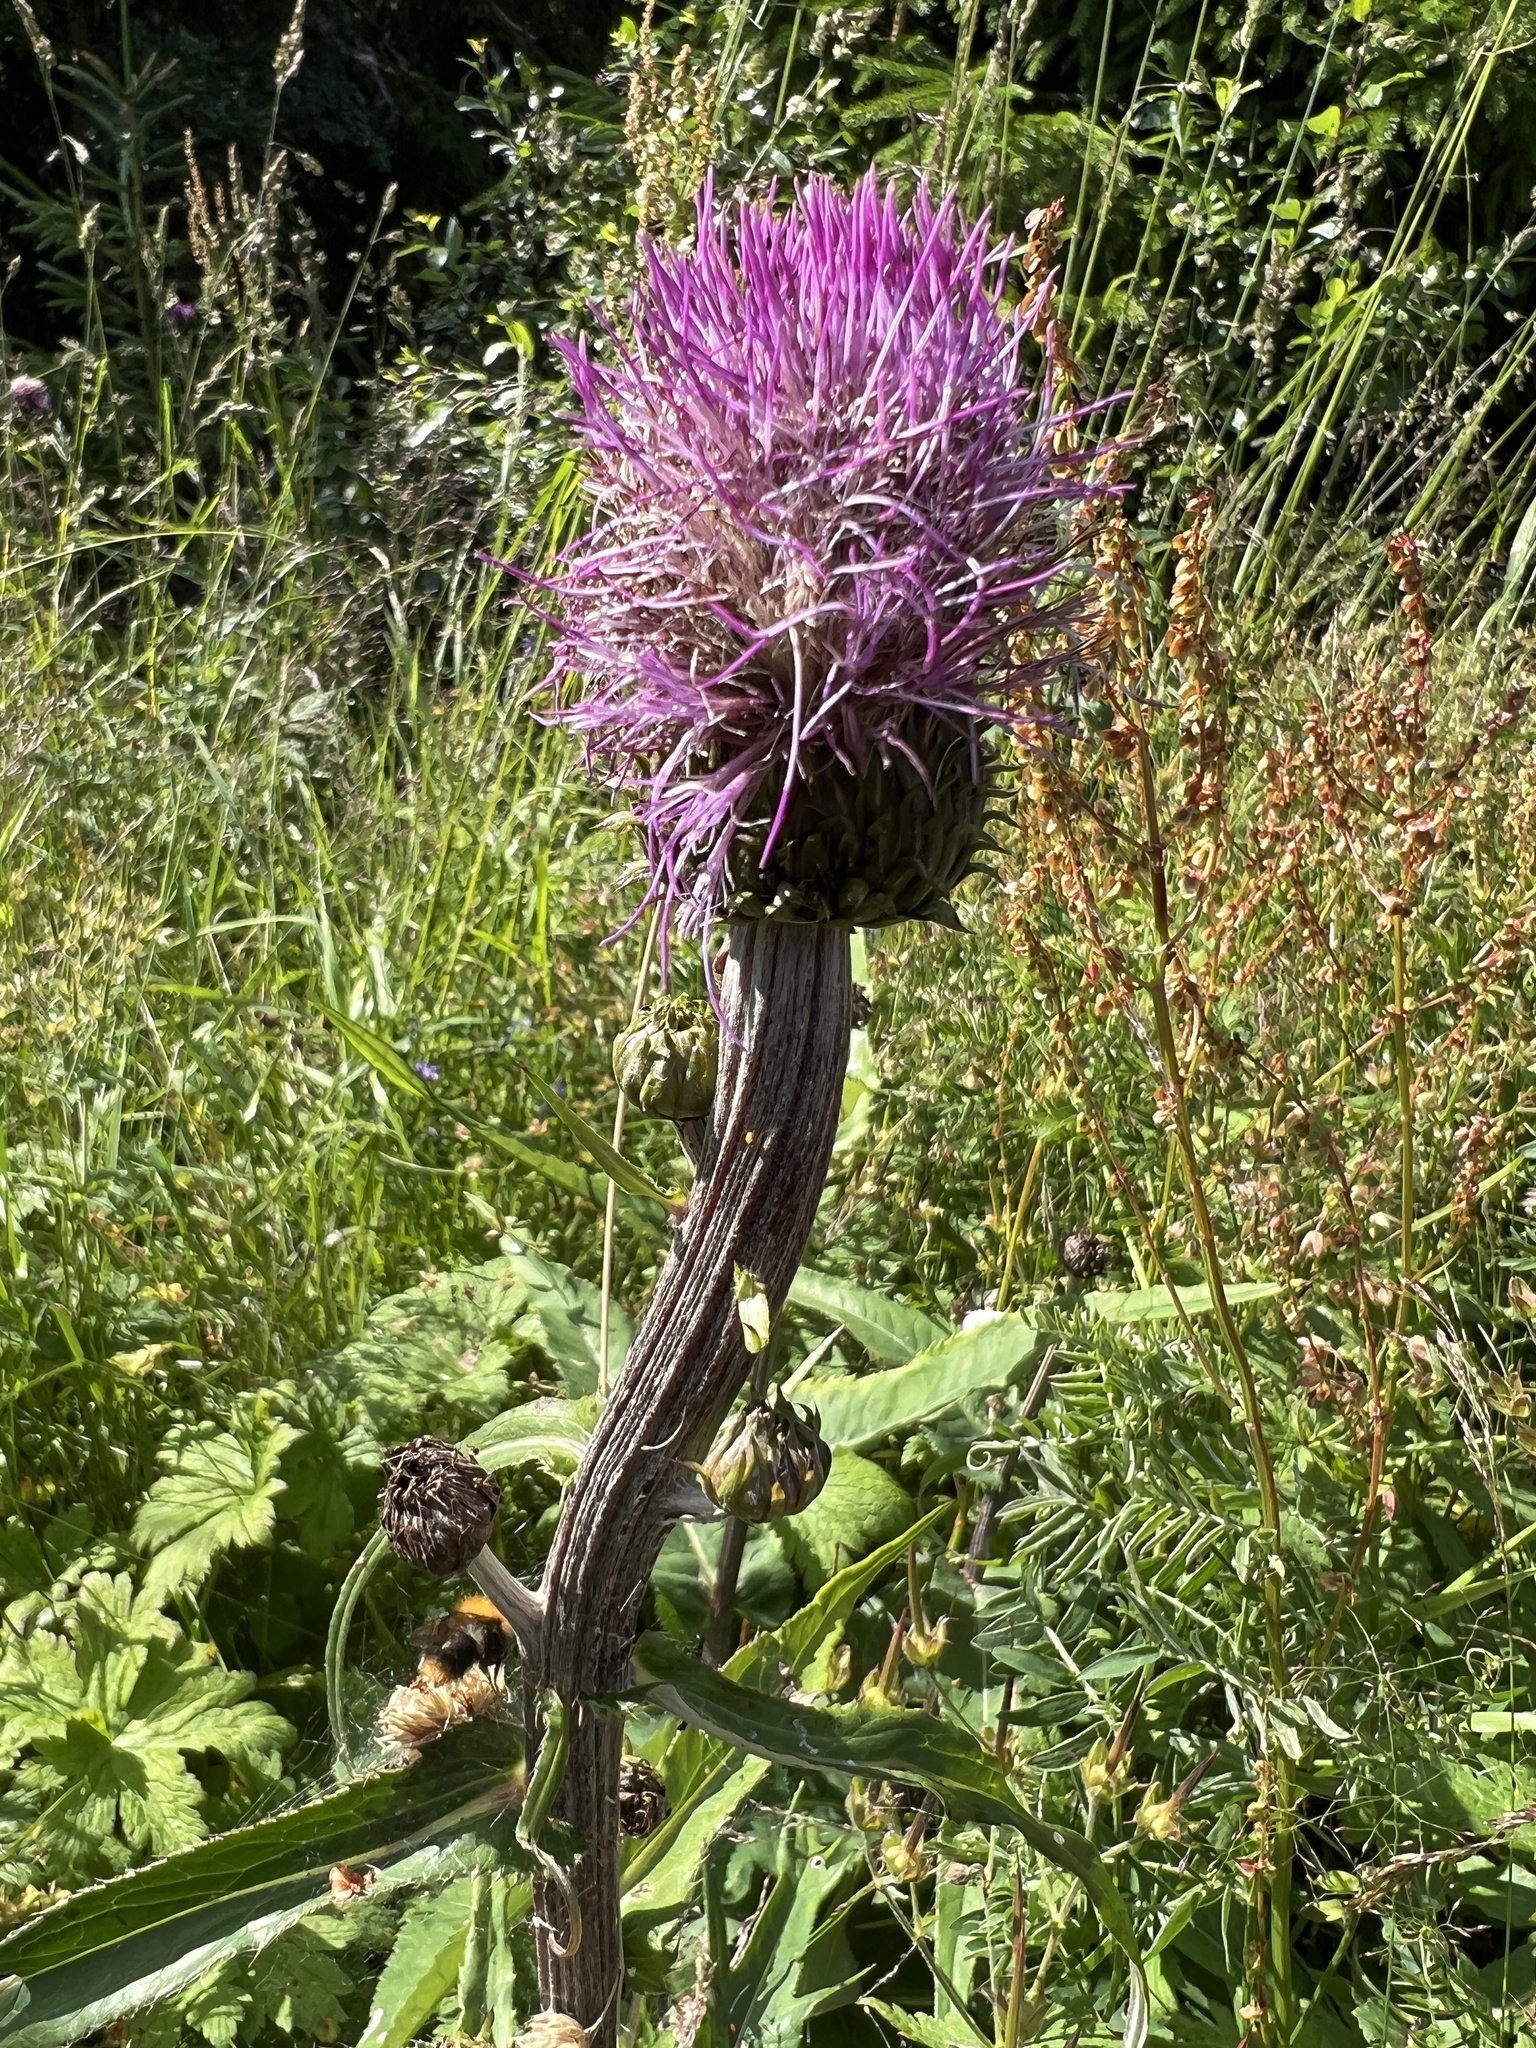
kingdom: Plantae
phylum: Tracheophyta
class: Magnoliopsida
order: Asterales
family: Asteraceae
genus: Cirsium
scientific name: Cirsium heterophyllum
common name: Melancholy thistle
